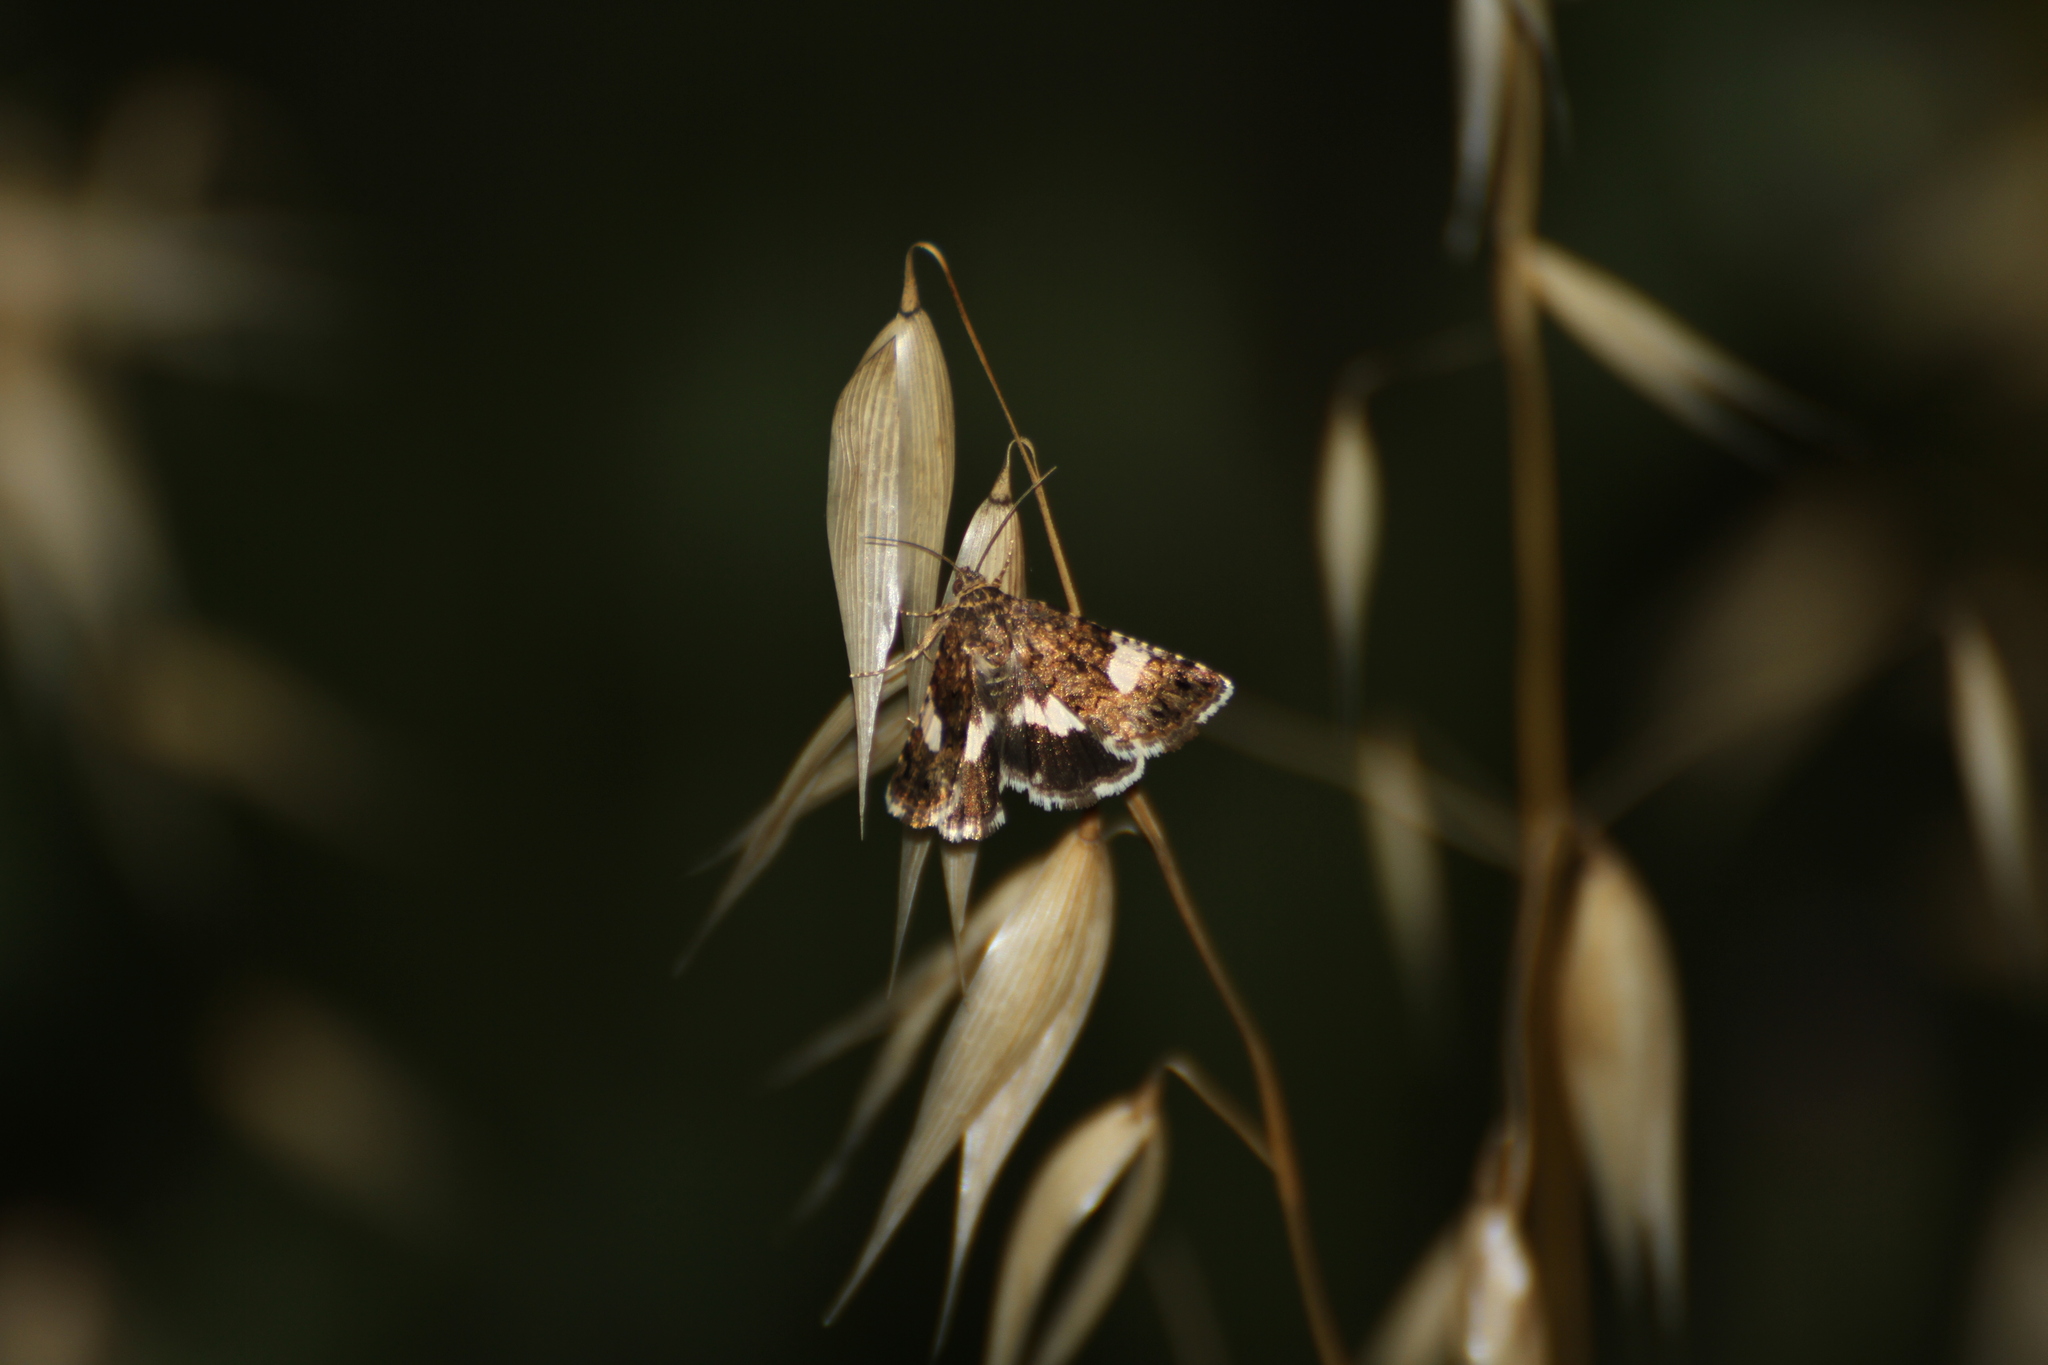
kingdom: Animalia
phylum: Arthropoda
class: Insecta
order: Lepidoptera
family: Erebidae
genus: Tyta
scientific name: Tyta luctuosa
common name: Four-spotted
